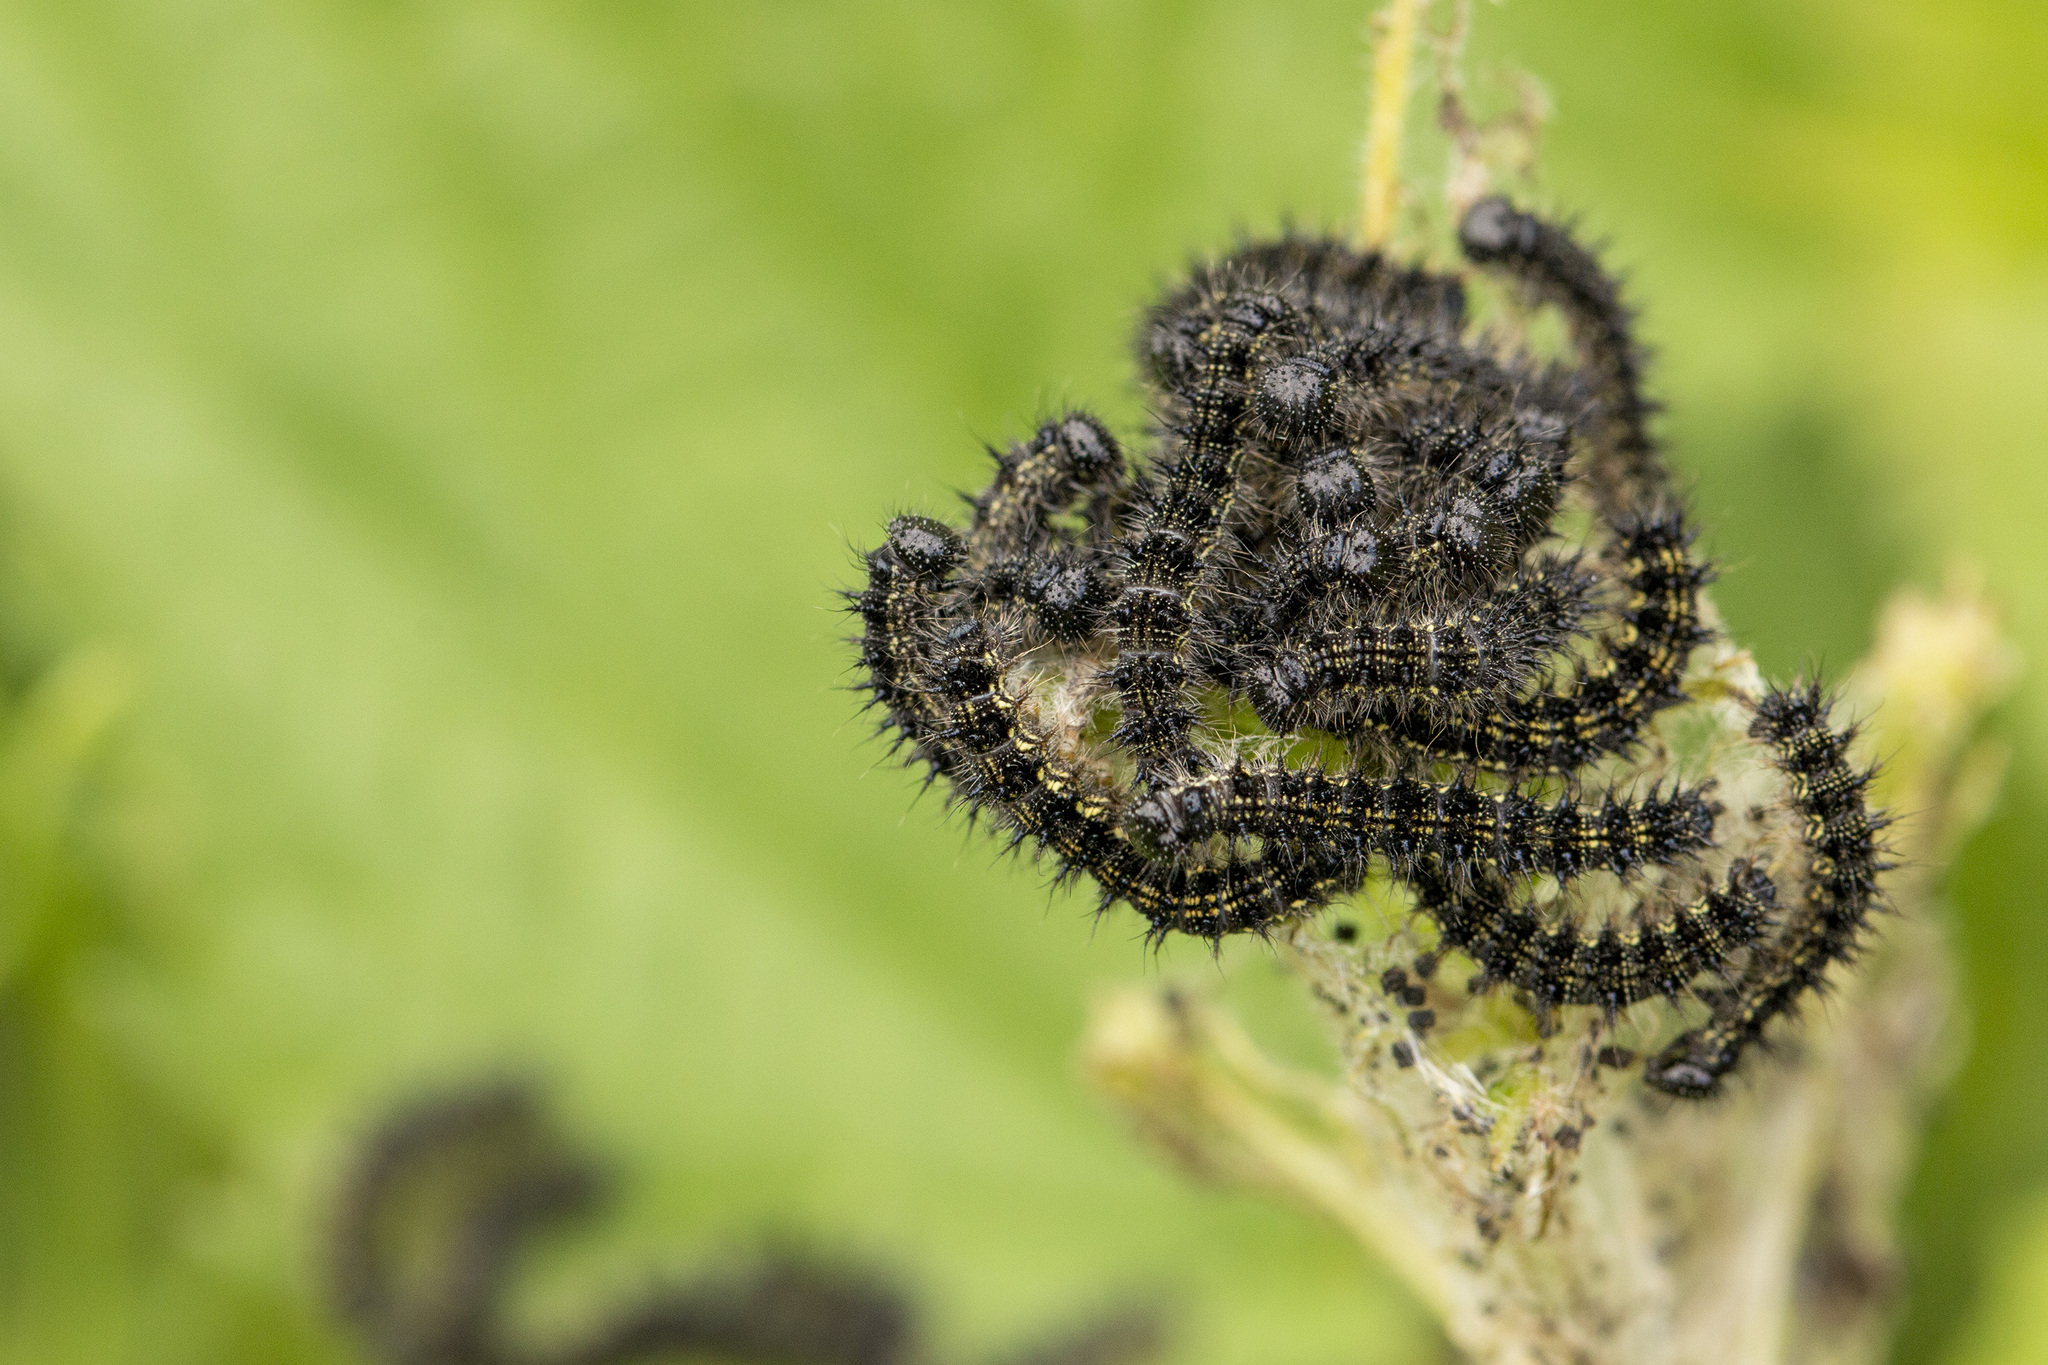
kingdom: Animalia
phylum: Arthropoda
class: Insecta
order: Lepidoptera
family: Nymphalidae
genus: Aglais
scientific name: Aglais urticae
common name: Small tortoiseshell
